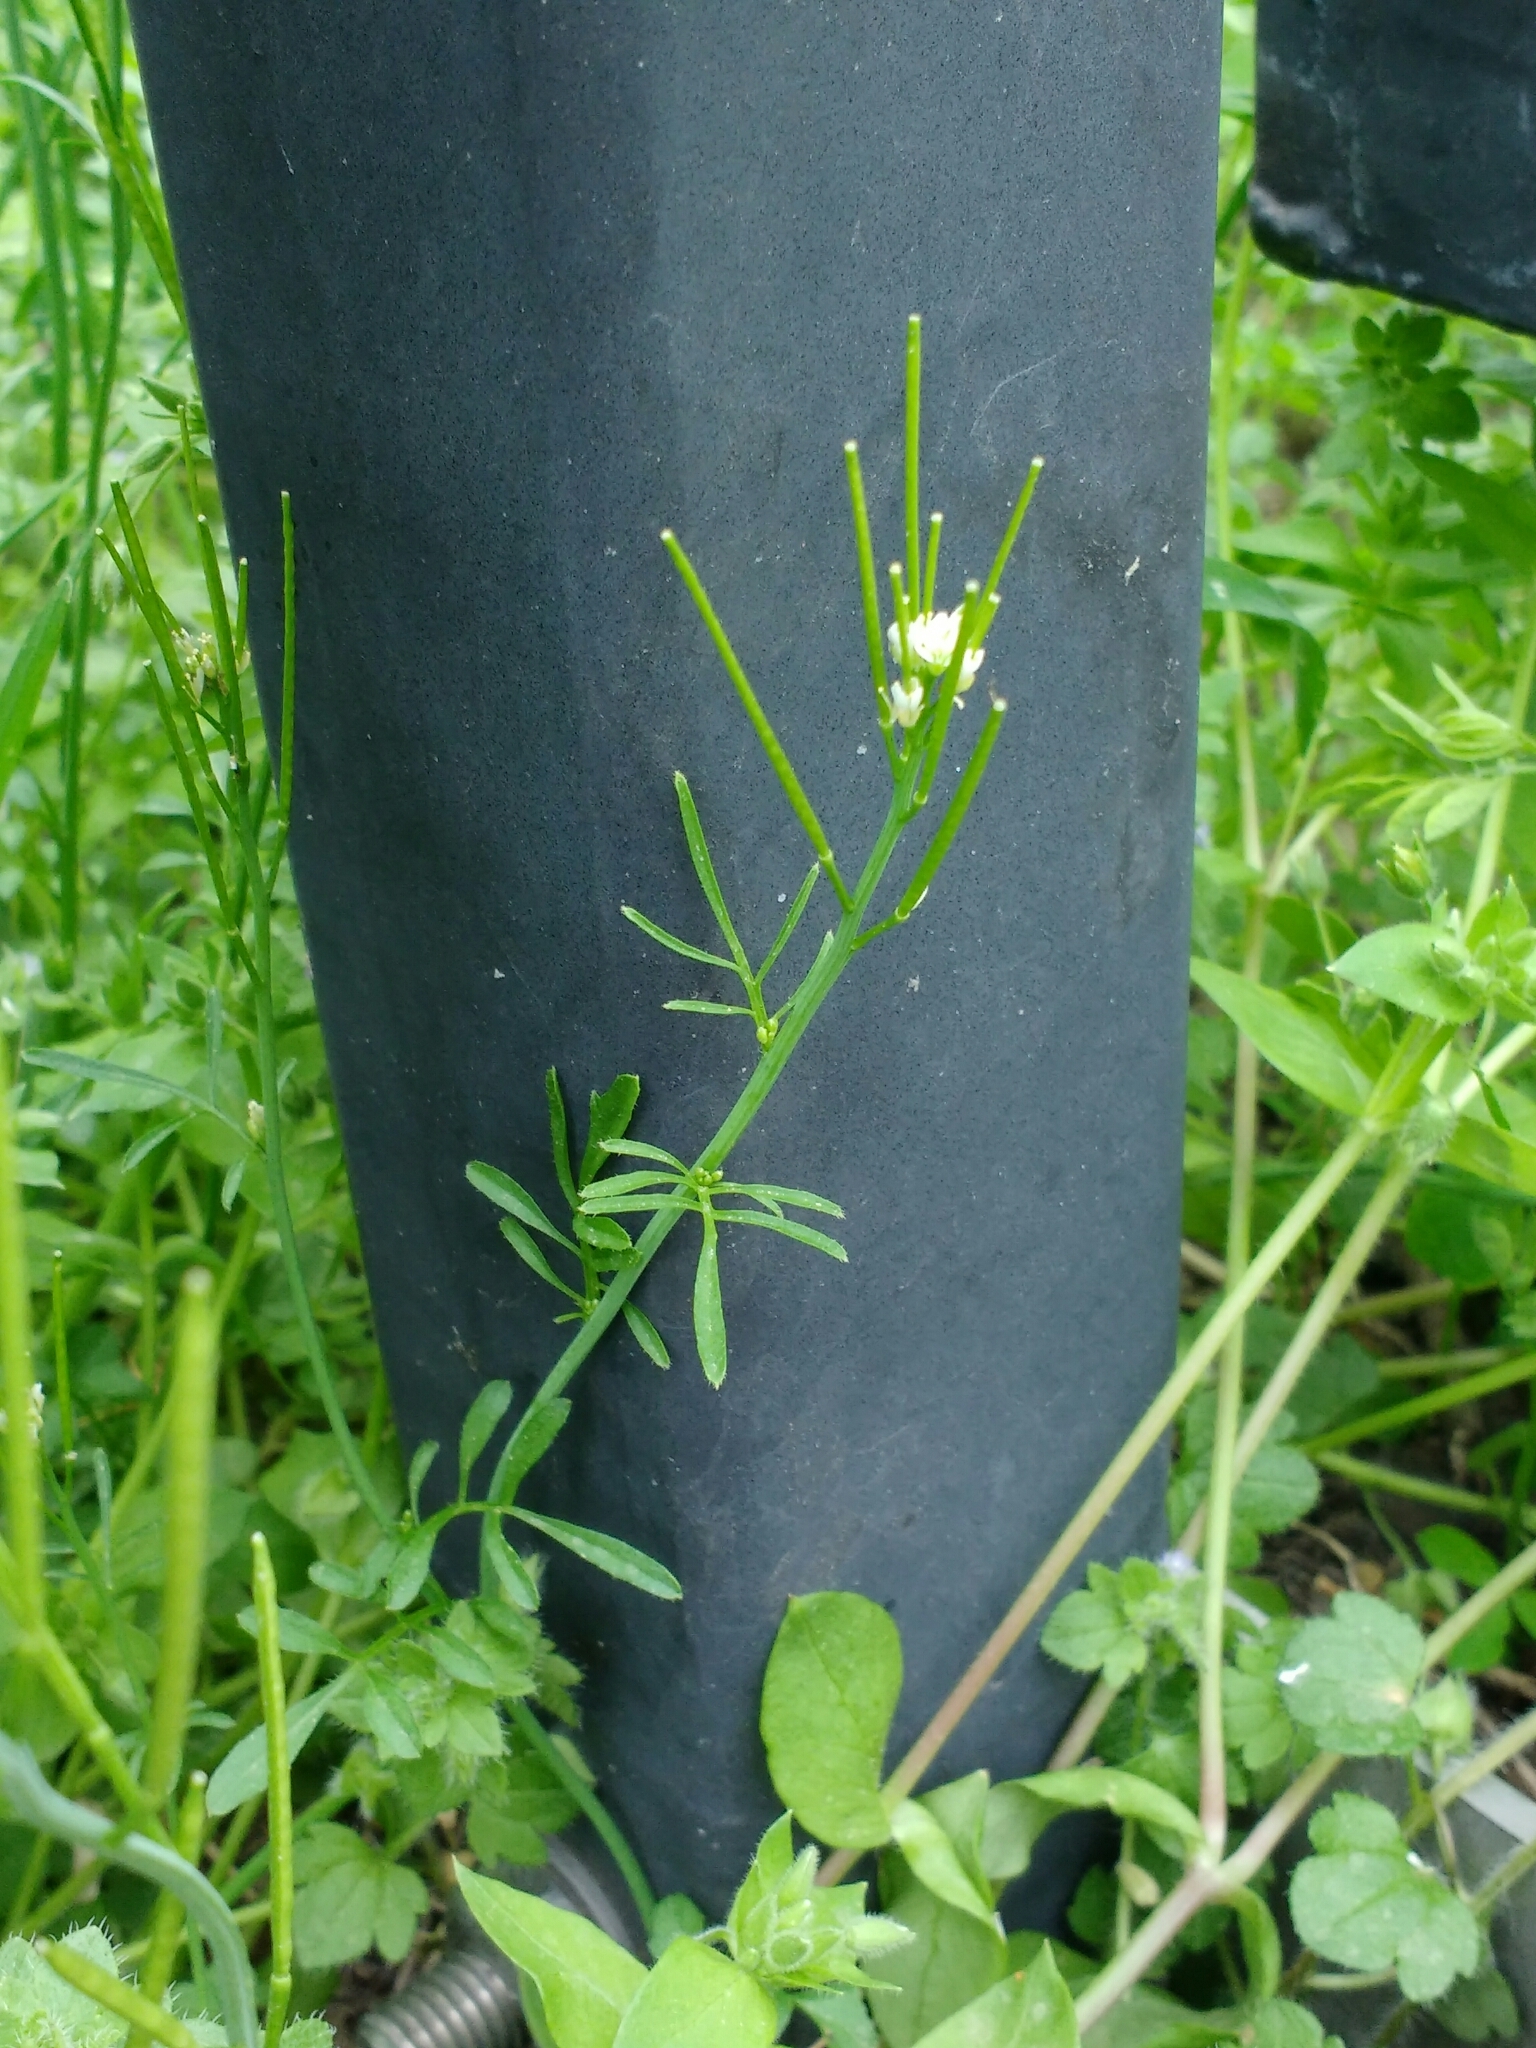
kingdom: Plantae
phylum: Tracheophyta
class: Magnoliopsida
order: Brassicales
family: Brassicaceae
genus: Cardamine
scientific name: Cardamine hirsuta
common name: Hairy bittercress
